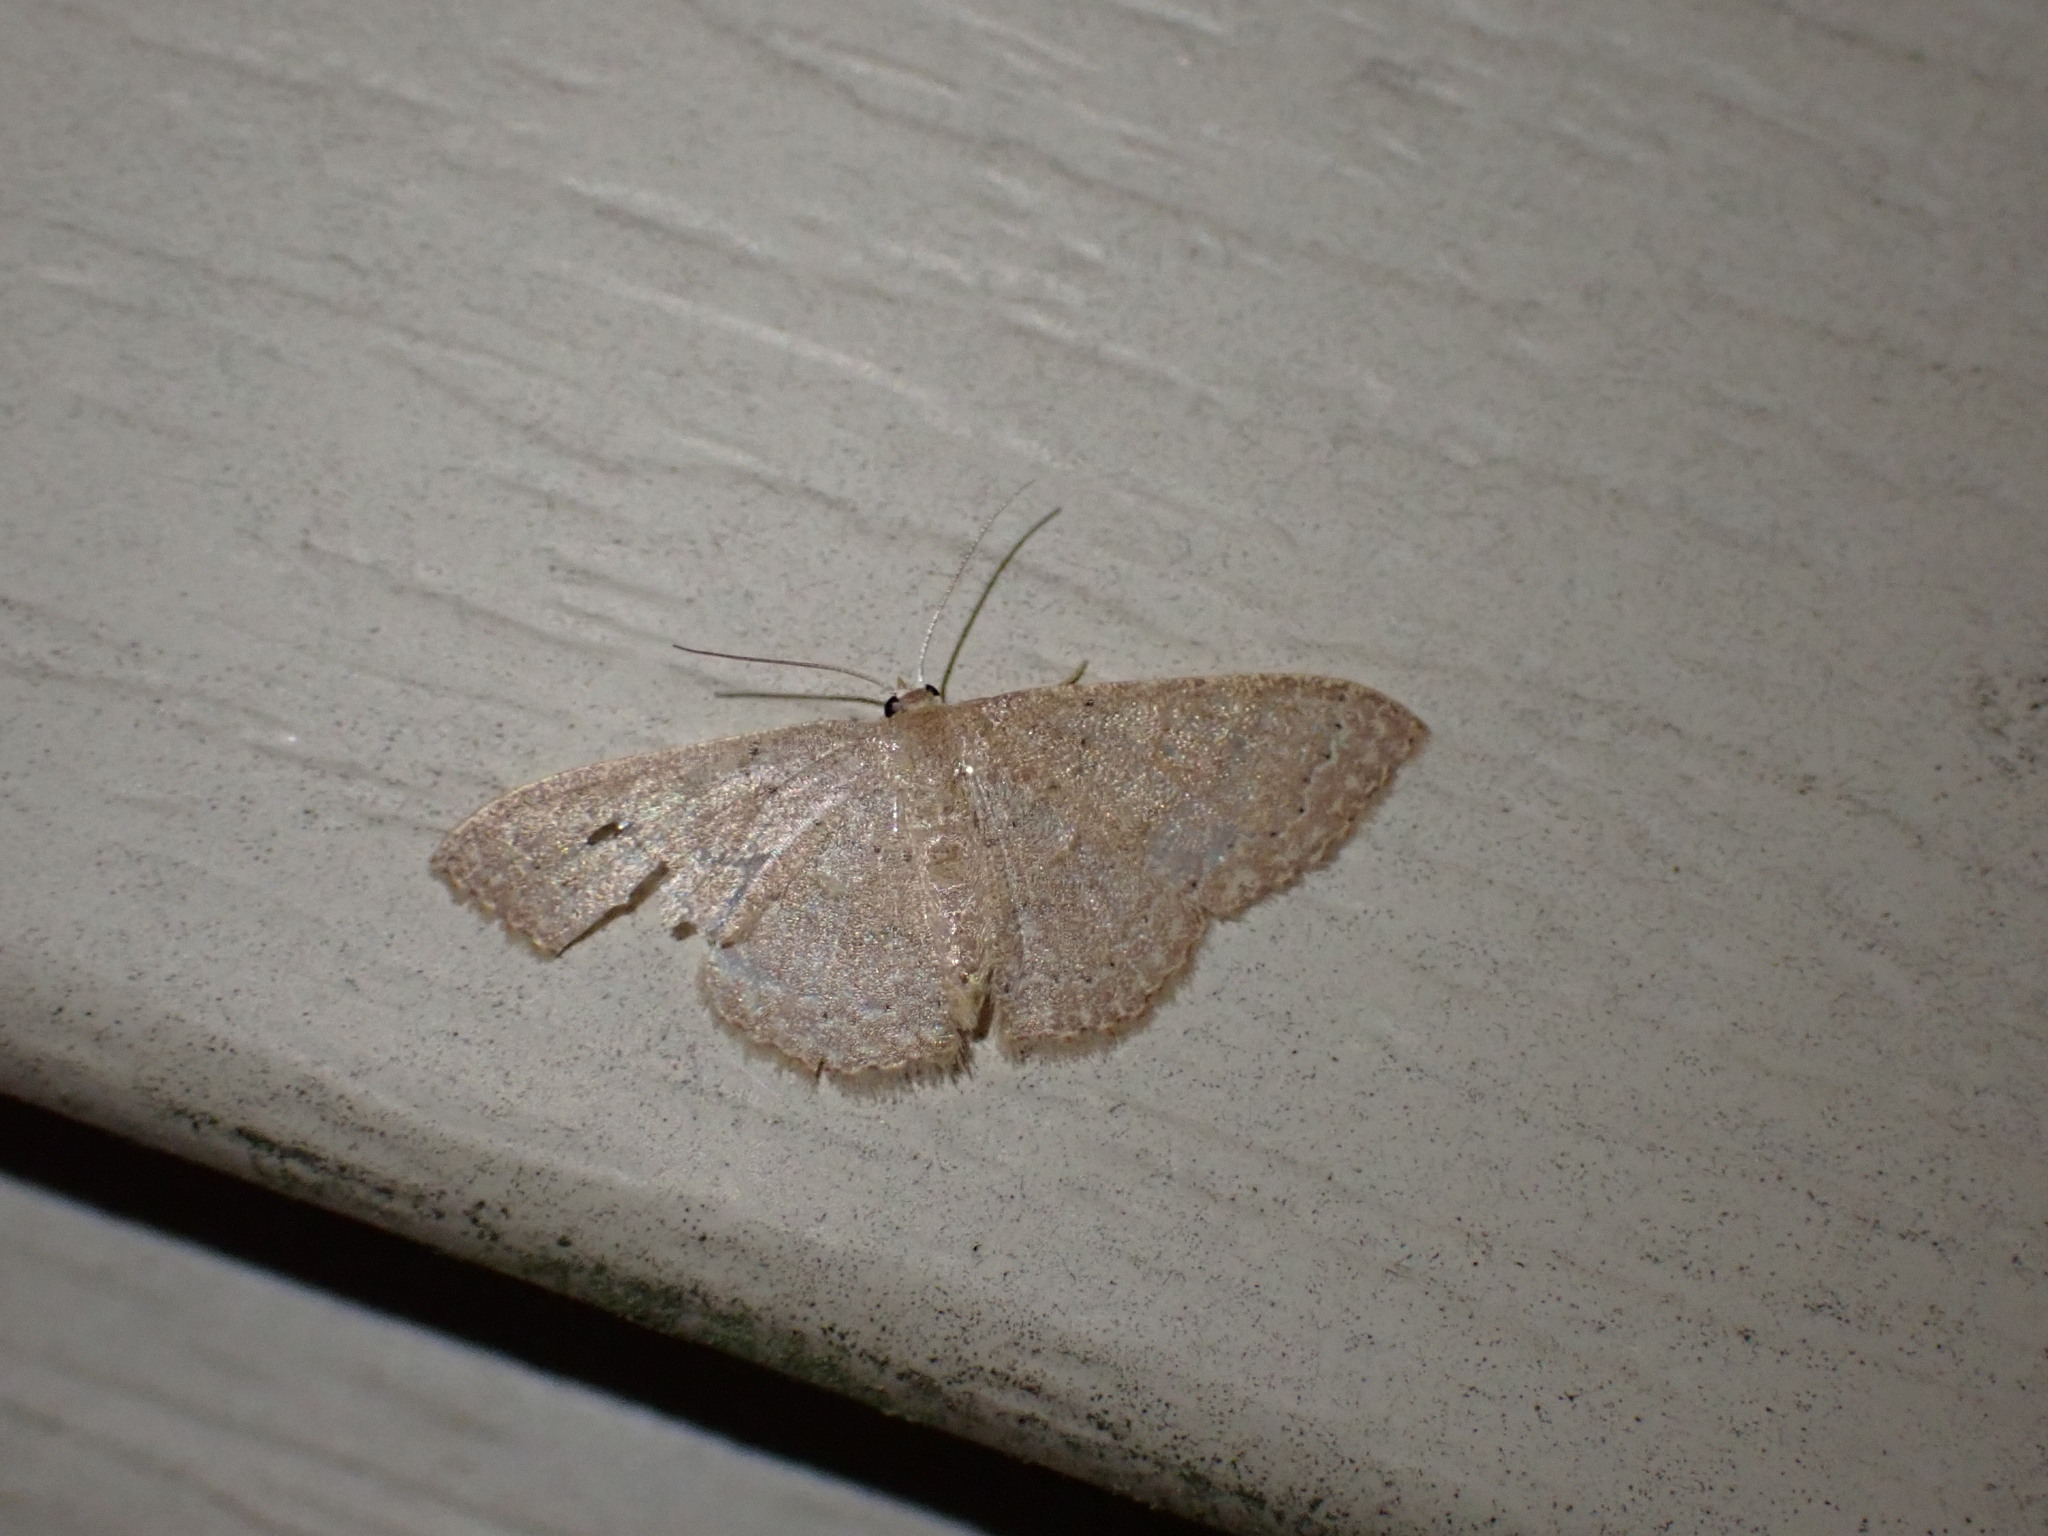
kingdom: Animalia
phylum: Arthropoda
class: Insecta
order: Lepidoptera
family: Geometridae
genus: Pleuroprucha
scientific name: Pleuroprucha insulsaria
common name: Common tan wave
